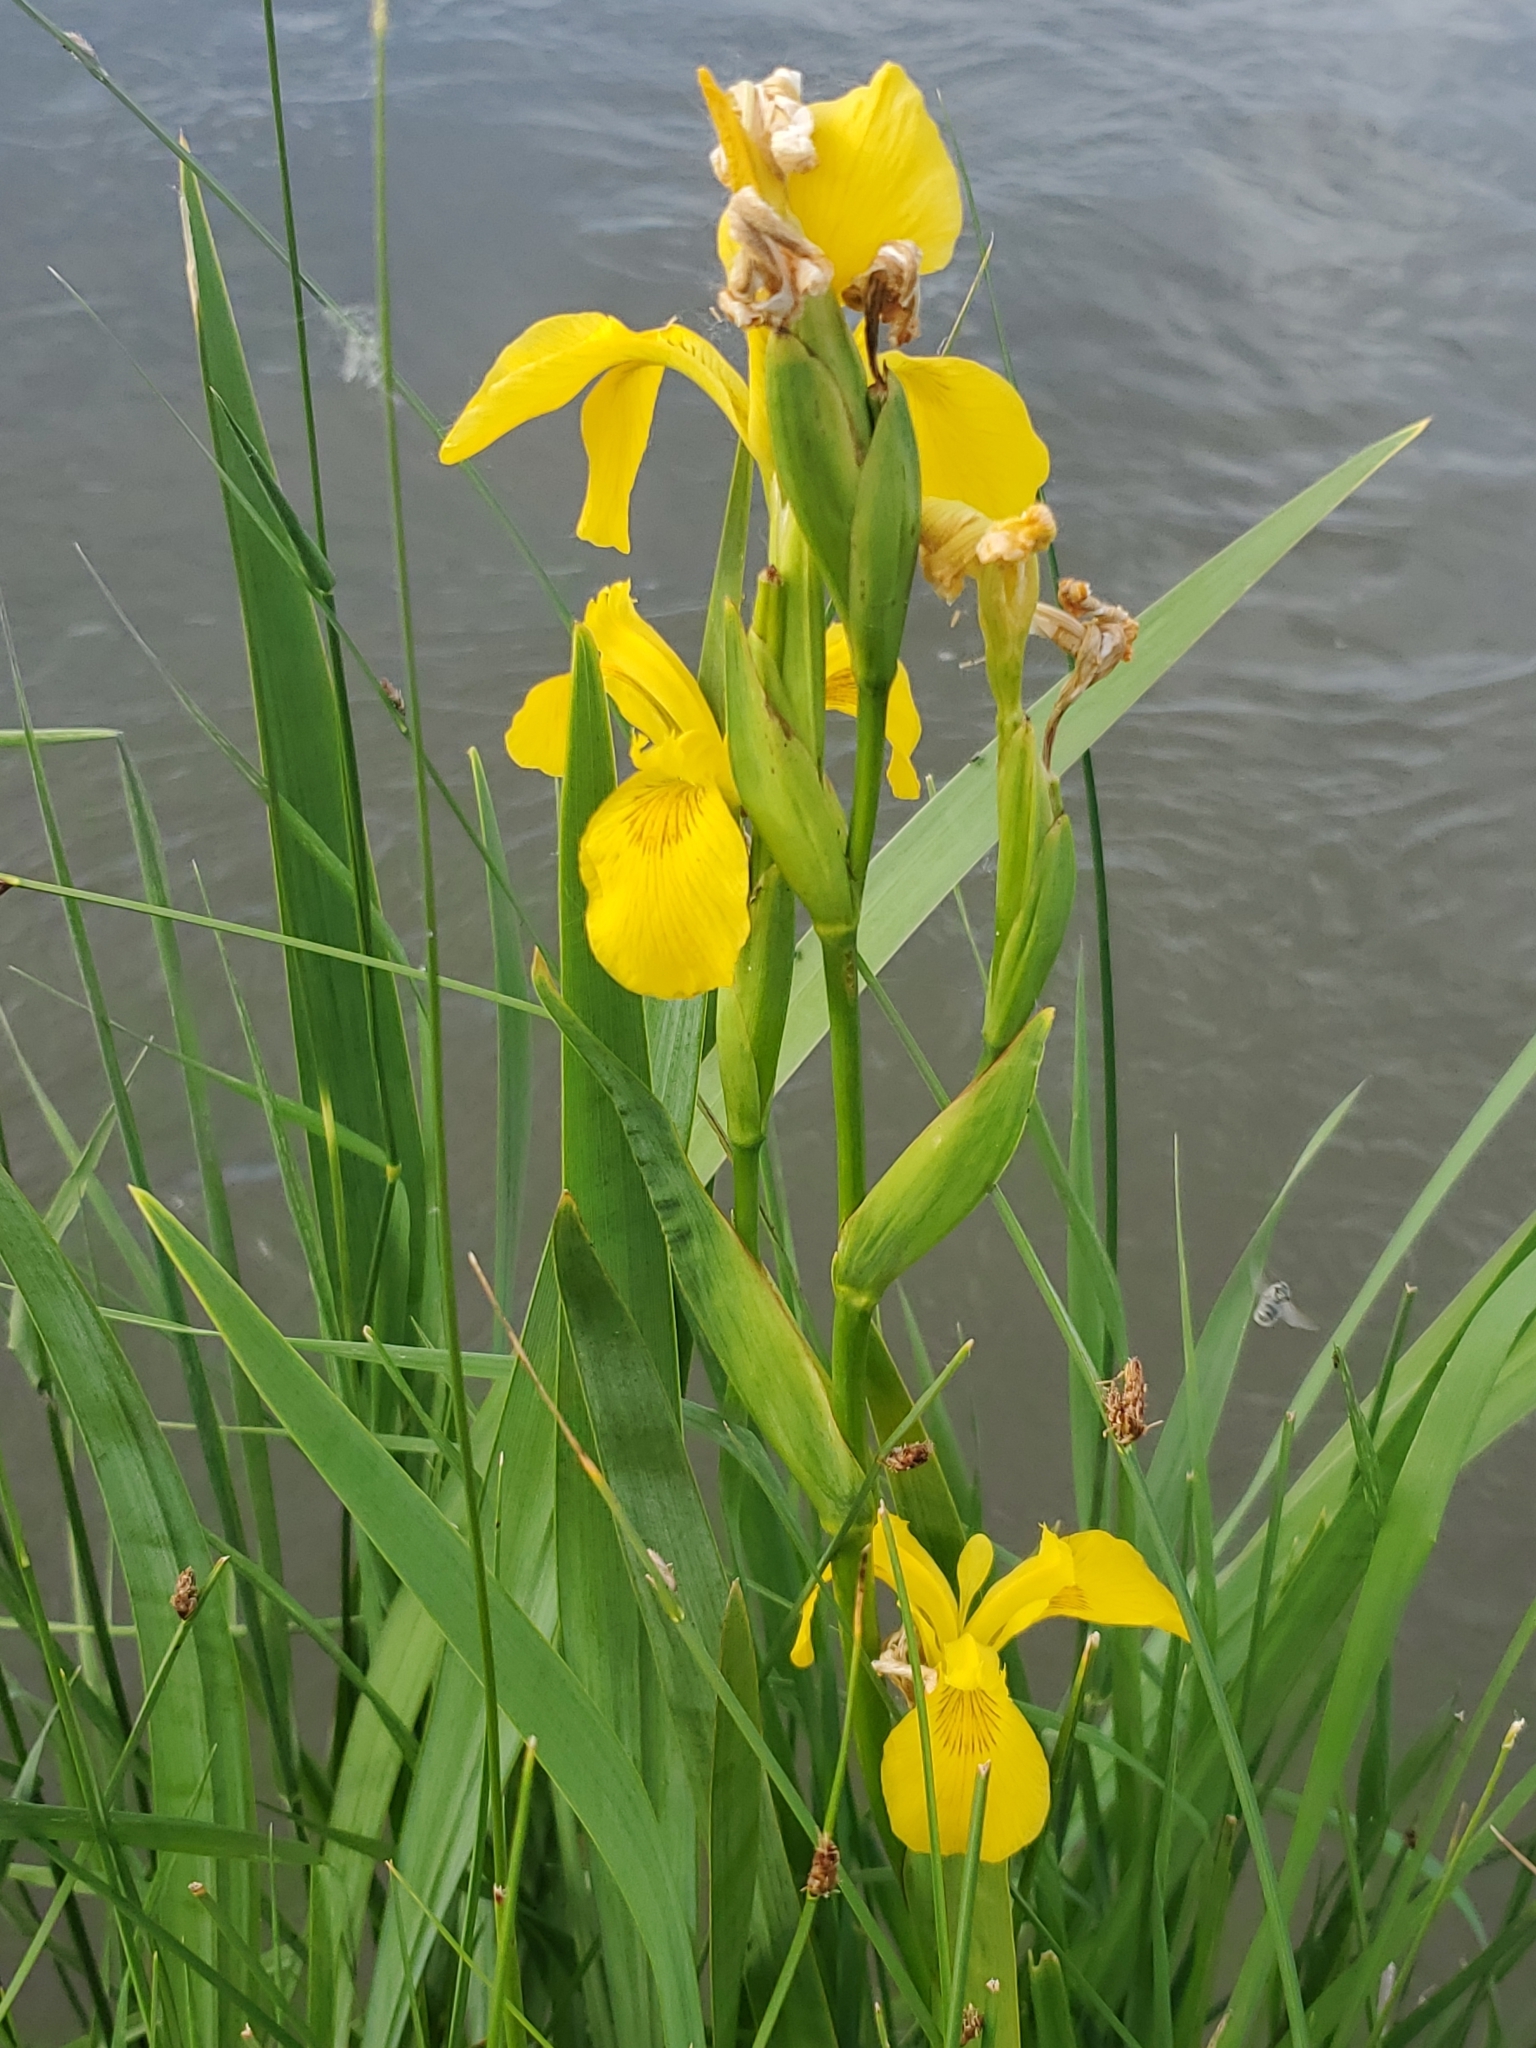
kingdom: Plantae
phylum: Tracheophyta
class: Liliopsida
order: Asparagales
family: Iridaceae
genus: Iris
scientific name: Iris pseudacorus
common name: Yellow flag
